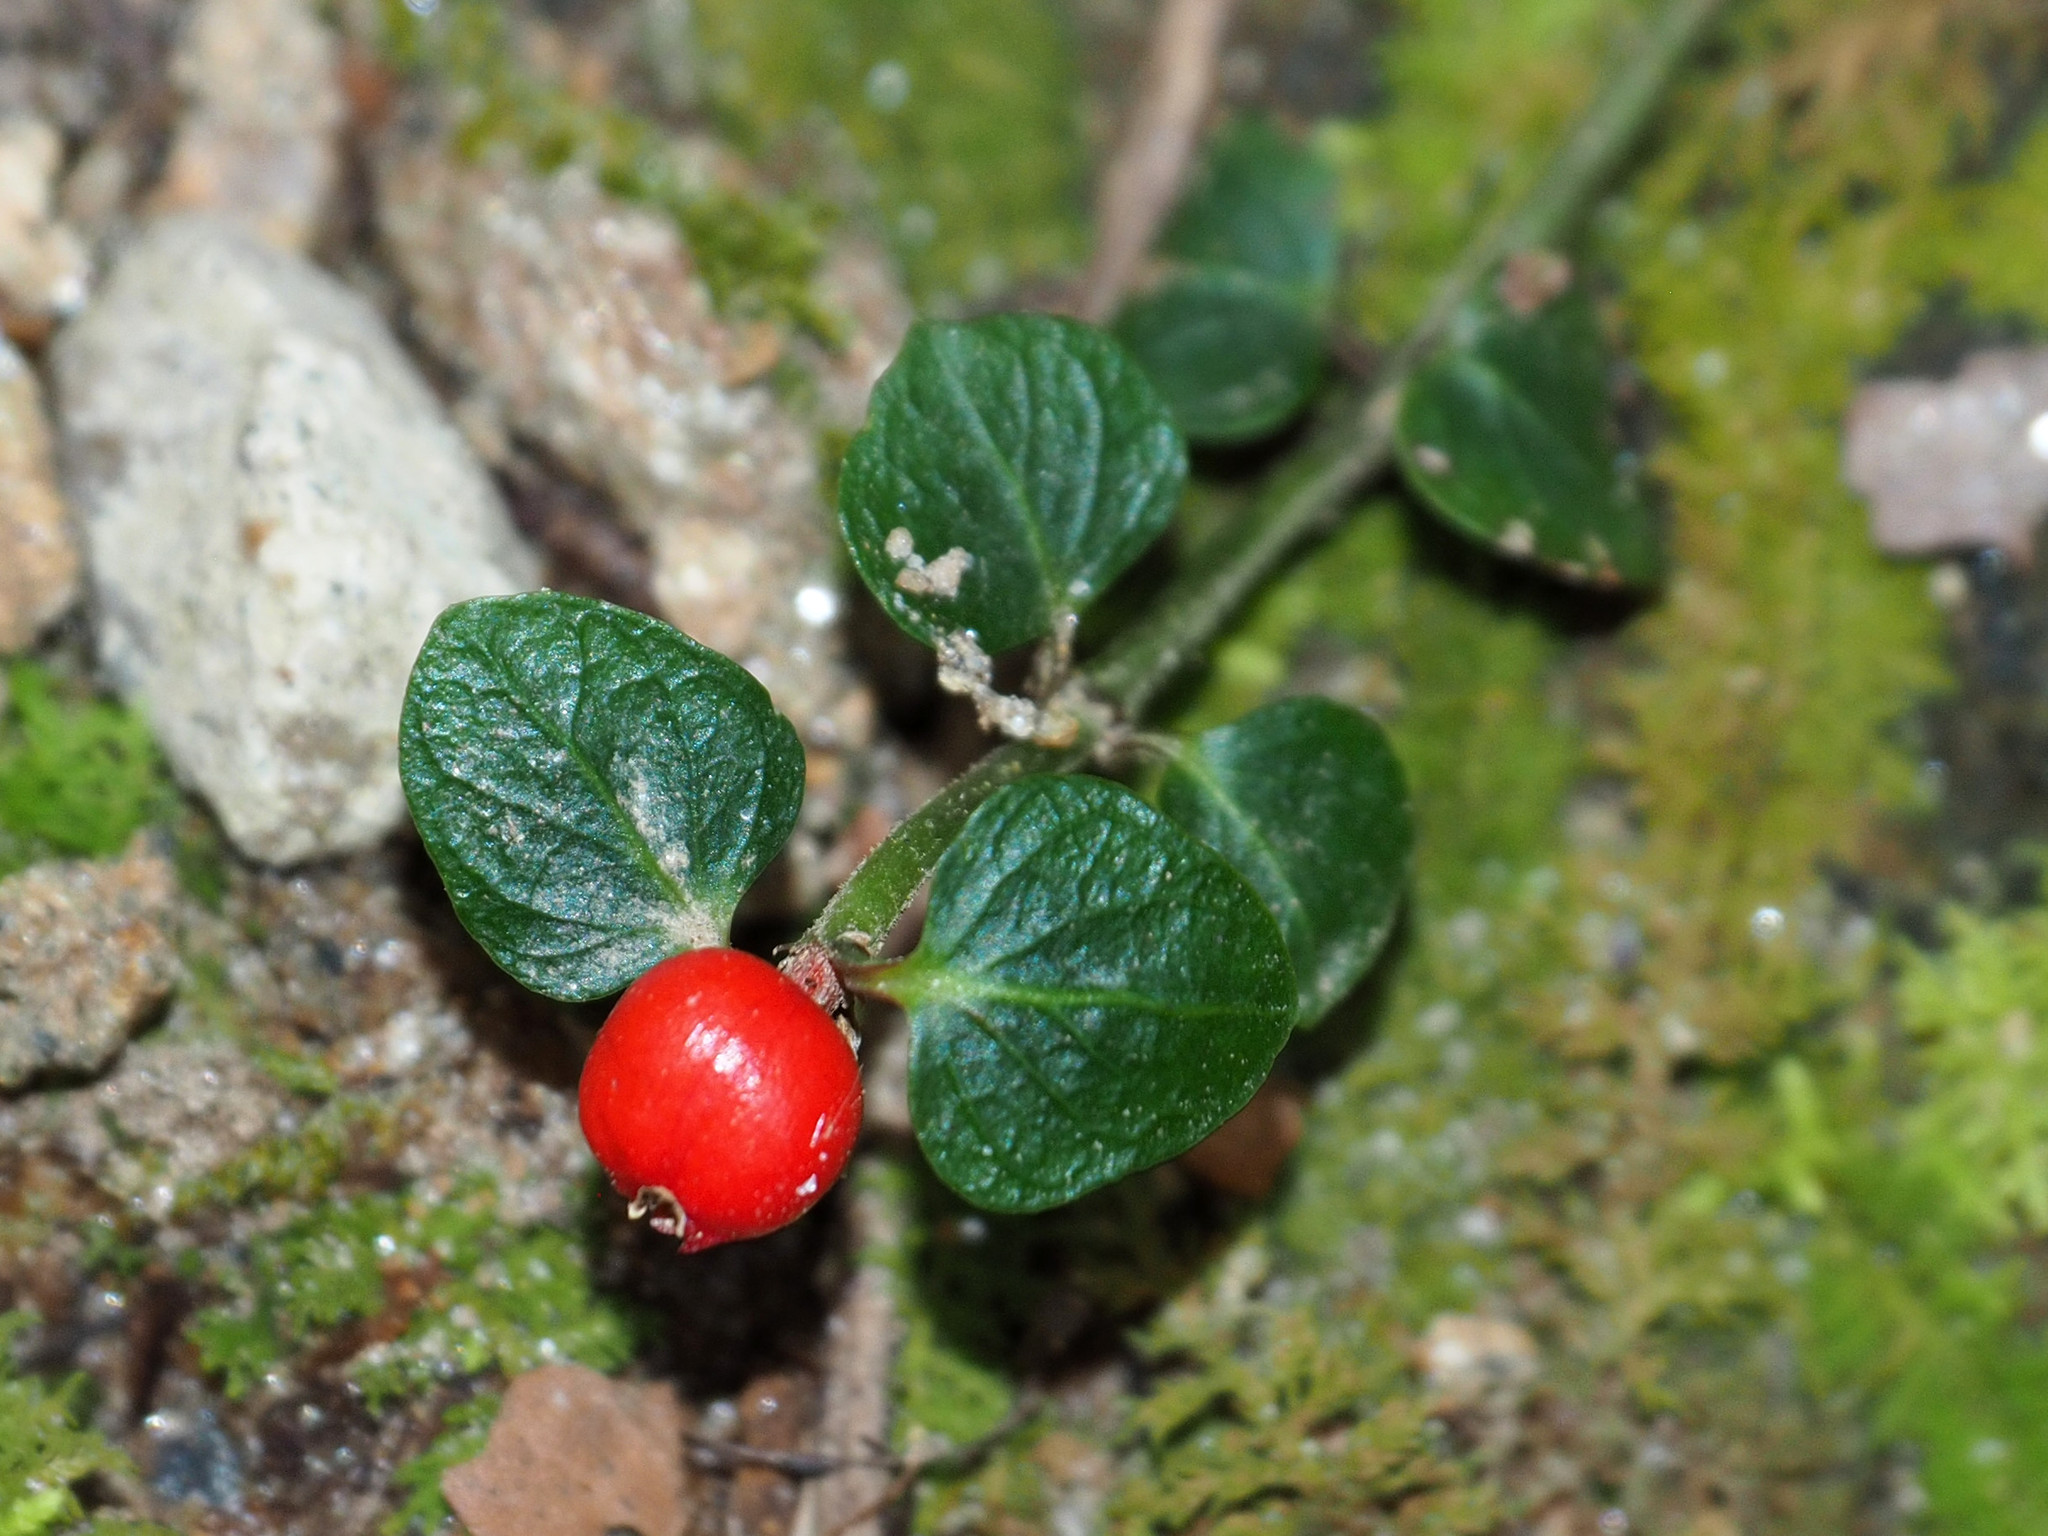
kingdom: Plantae
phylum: Tracheophyta
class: Magnoliopsida
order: Gentianales
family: Rubiaceae
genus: Mitchella
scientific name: Mitchella repens
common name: Partridge-berry
